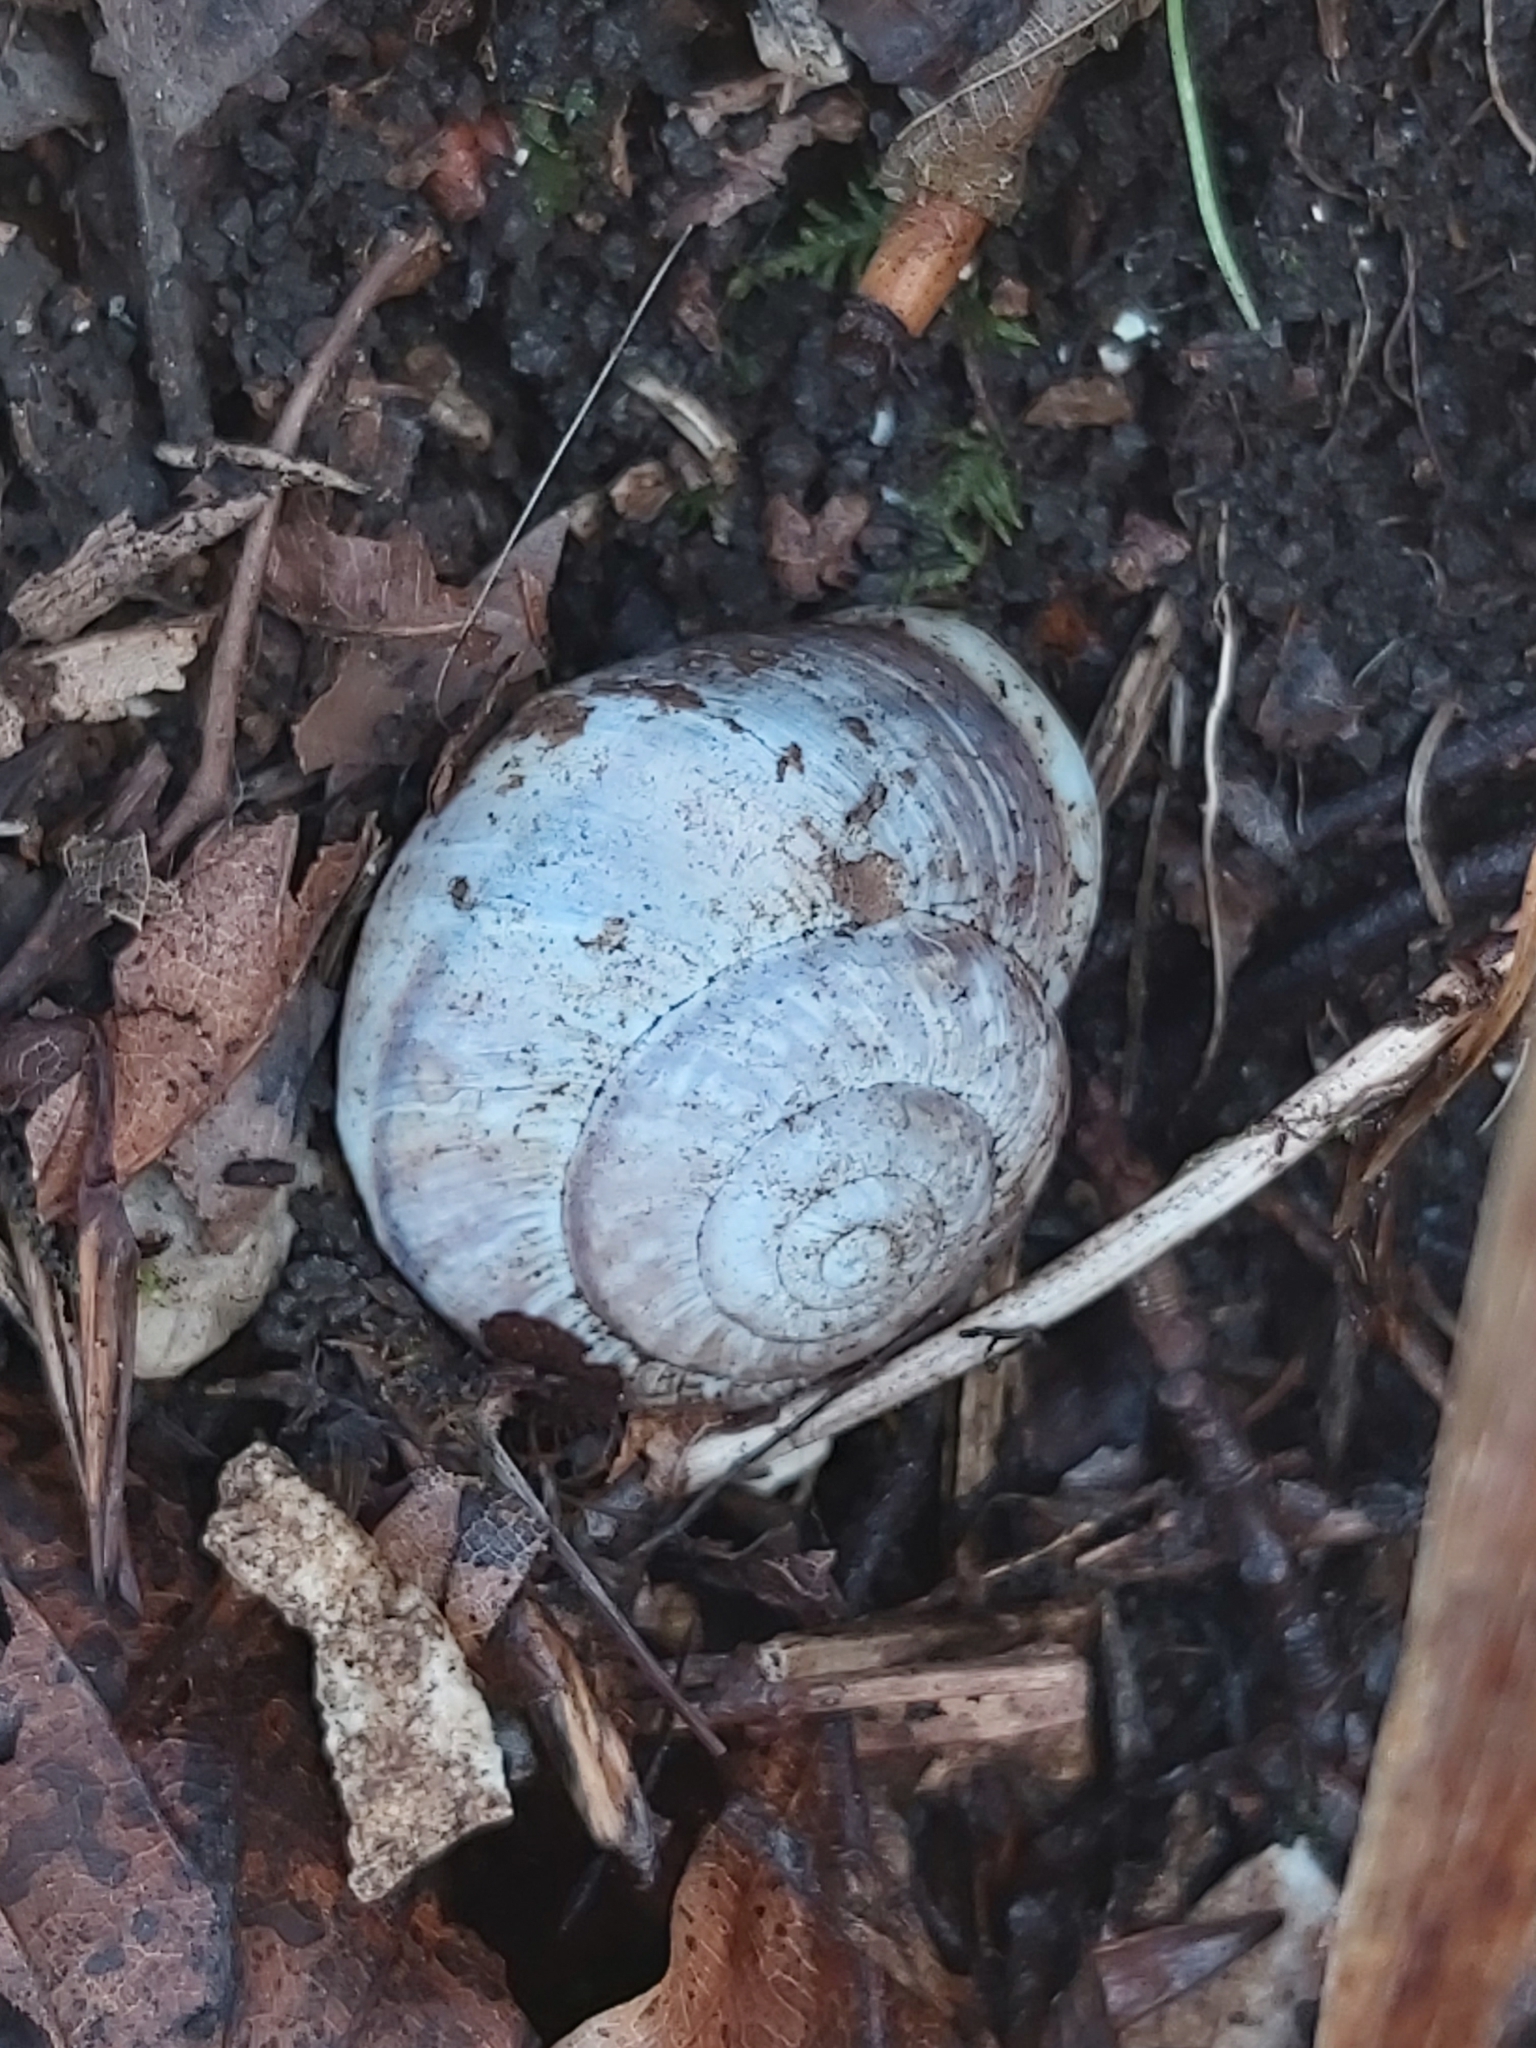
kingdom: Animalia
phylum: Mollusca
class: Gastropoda
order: Stylommatophora
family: Helicidae
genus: Arianta
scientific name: Arianta arbustorum
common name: Copse snail
